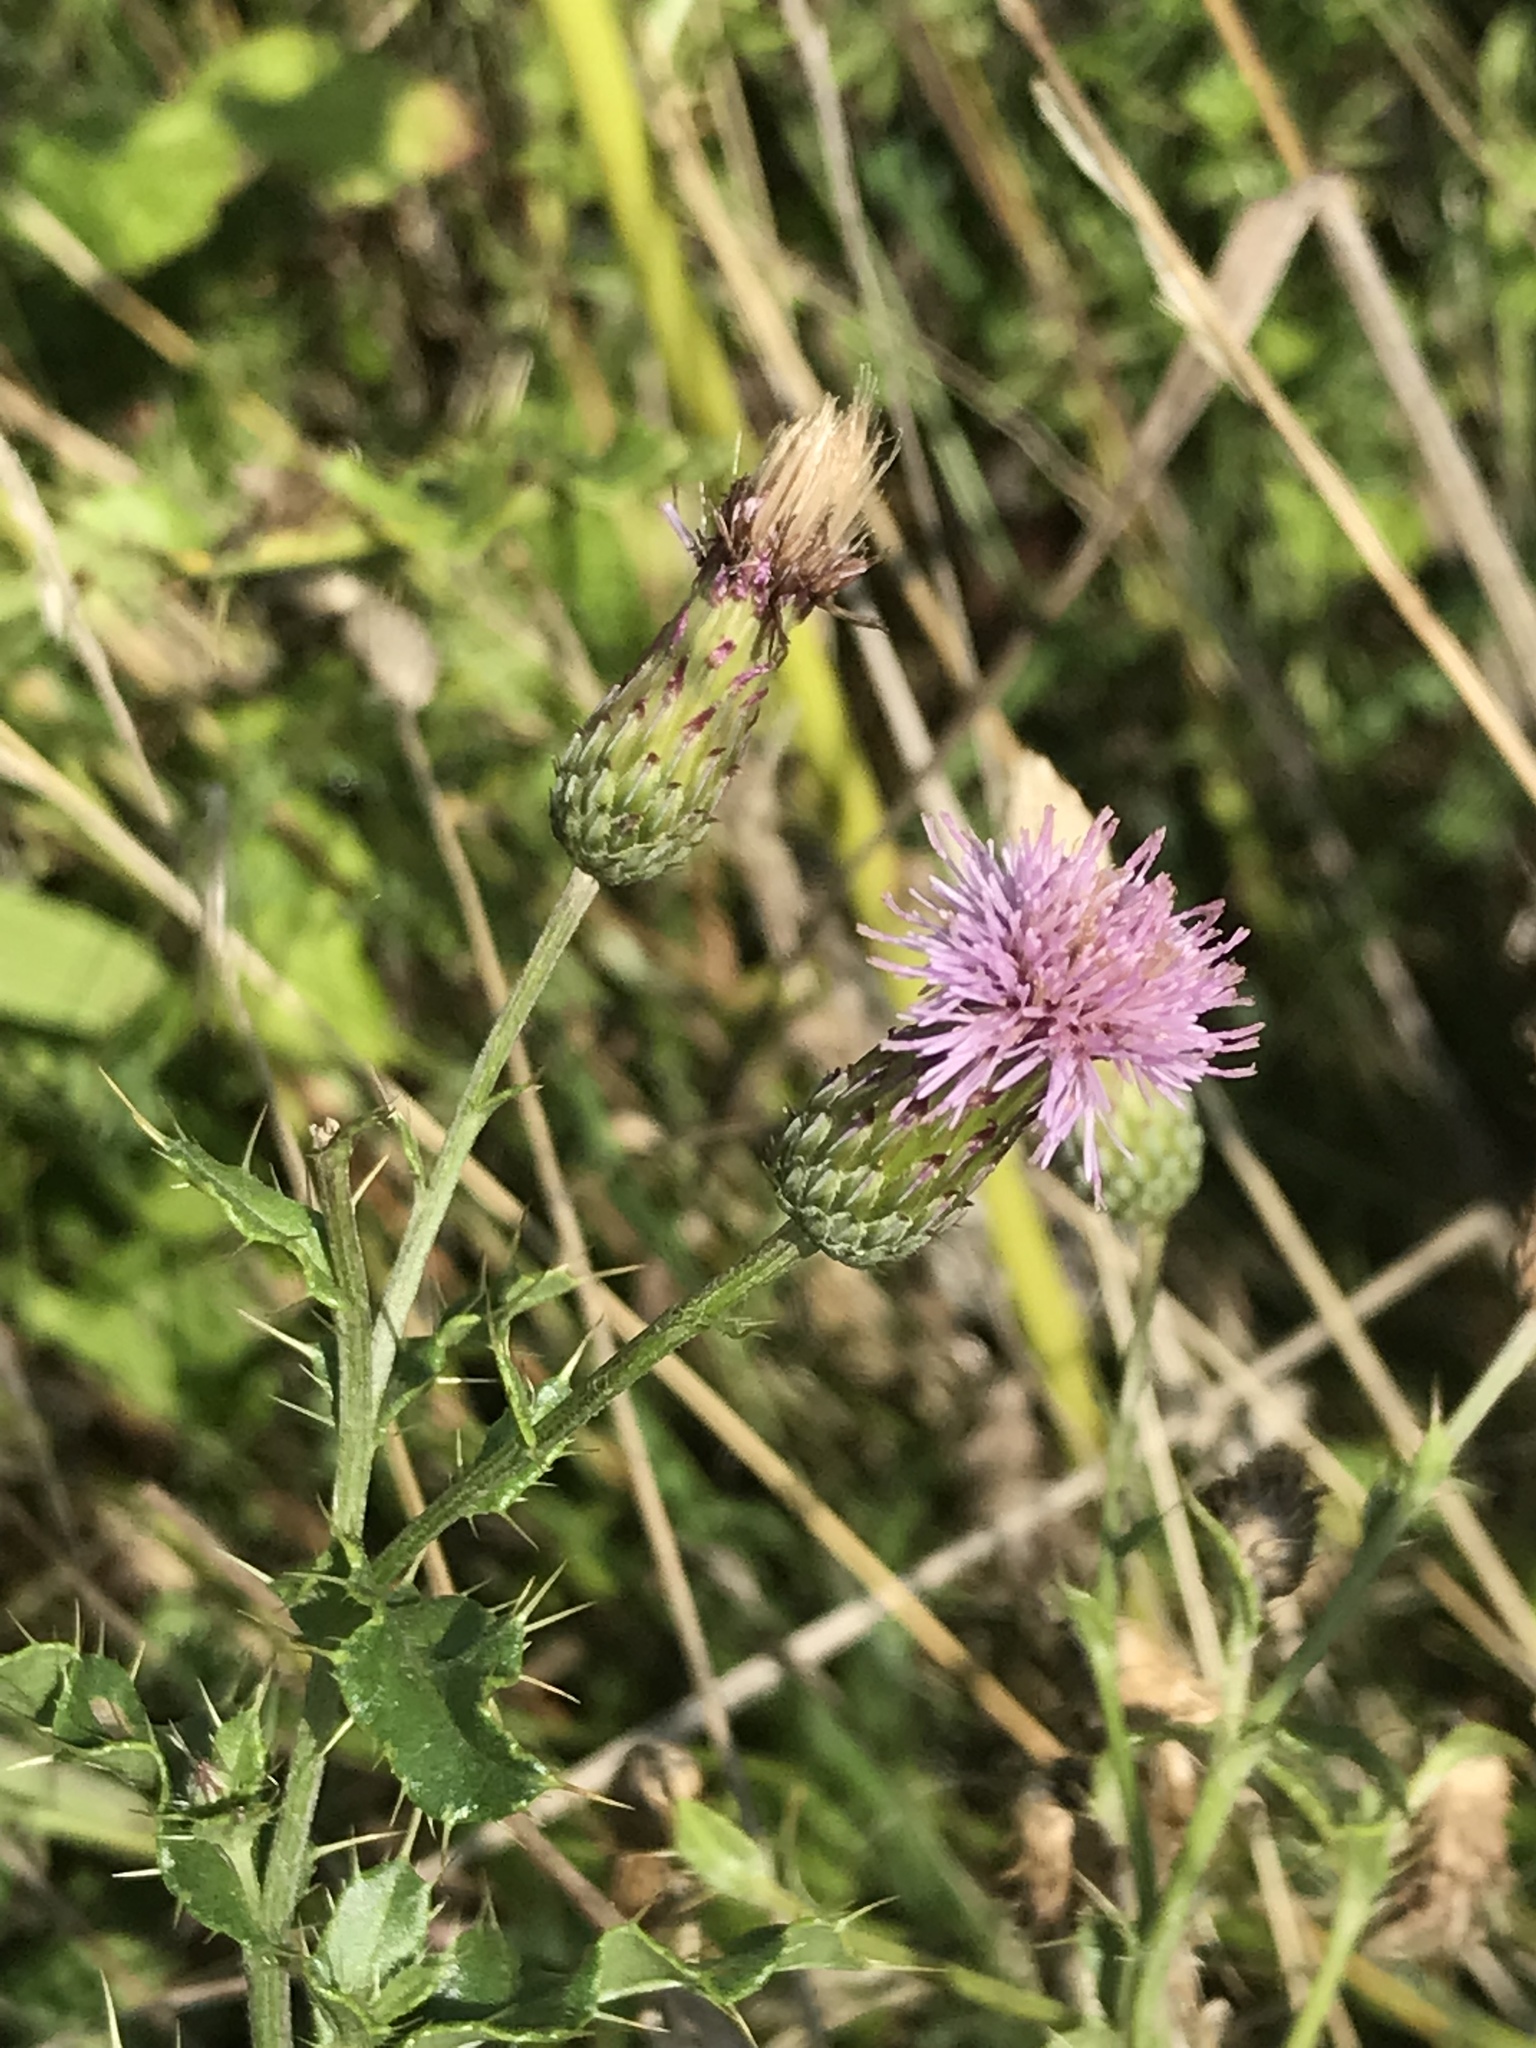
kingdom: Plantae
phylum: Tracheophyta
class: Magnoliopsida
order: Asterales
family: Asteraceae
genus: Cirsium
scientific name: Cirsium arvense
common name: Creeping thistle
